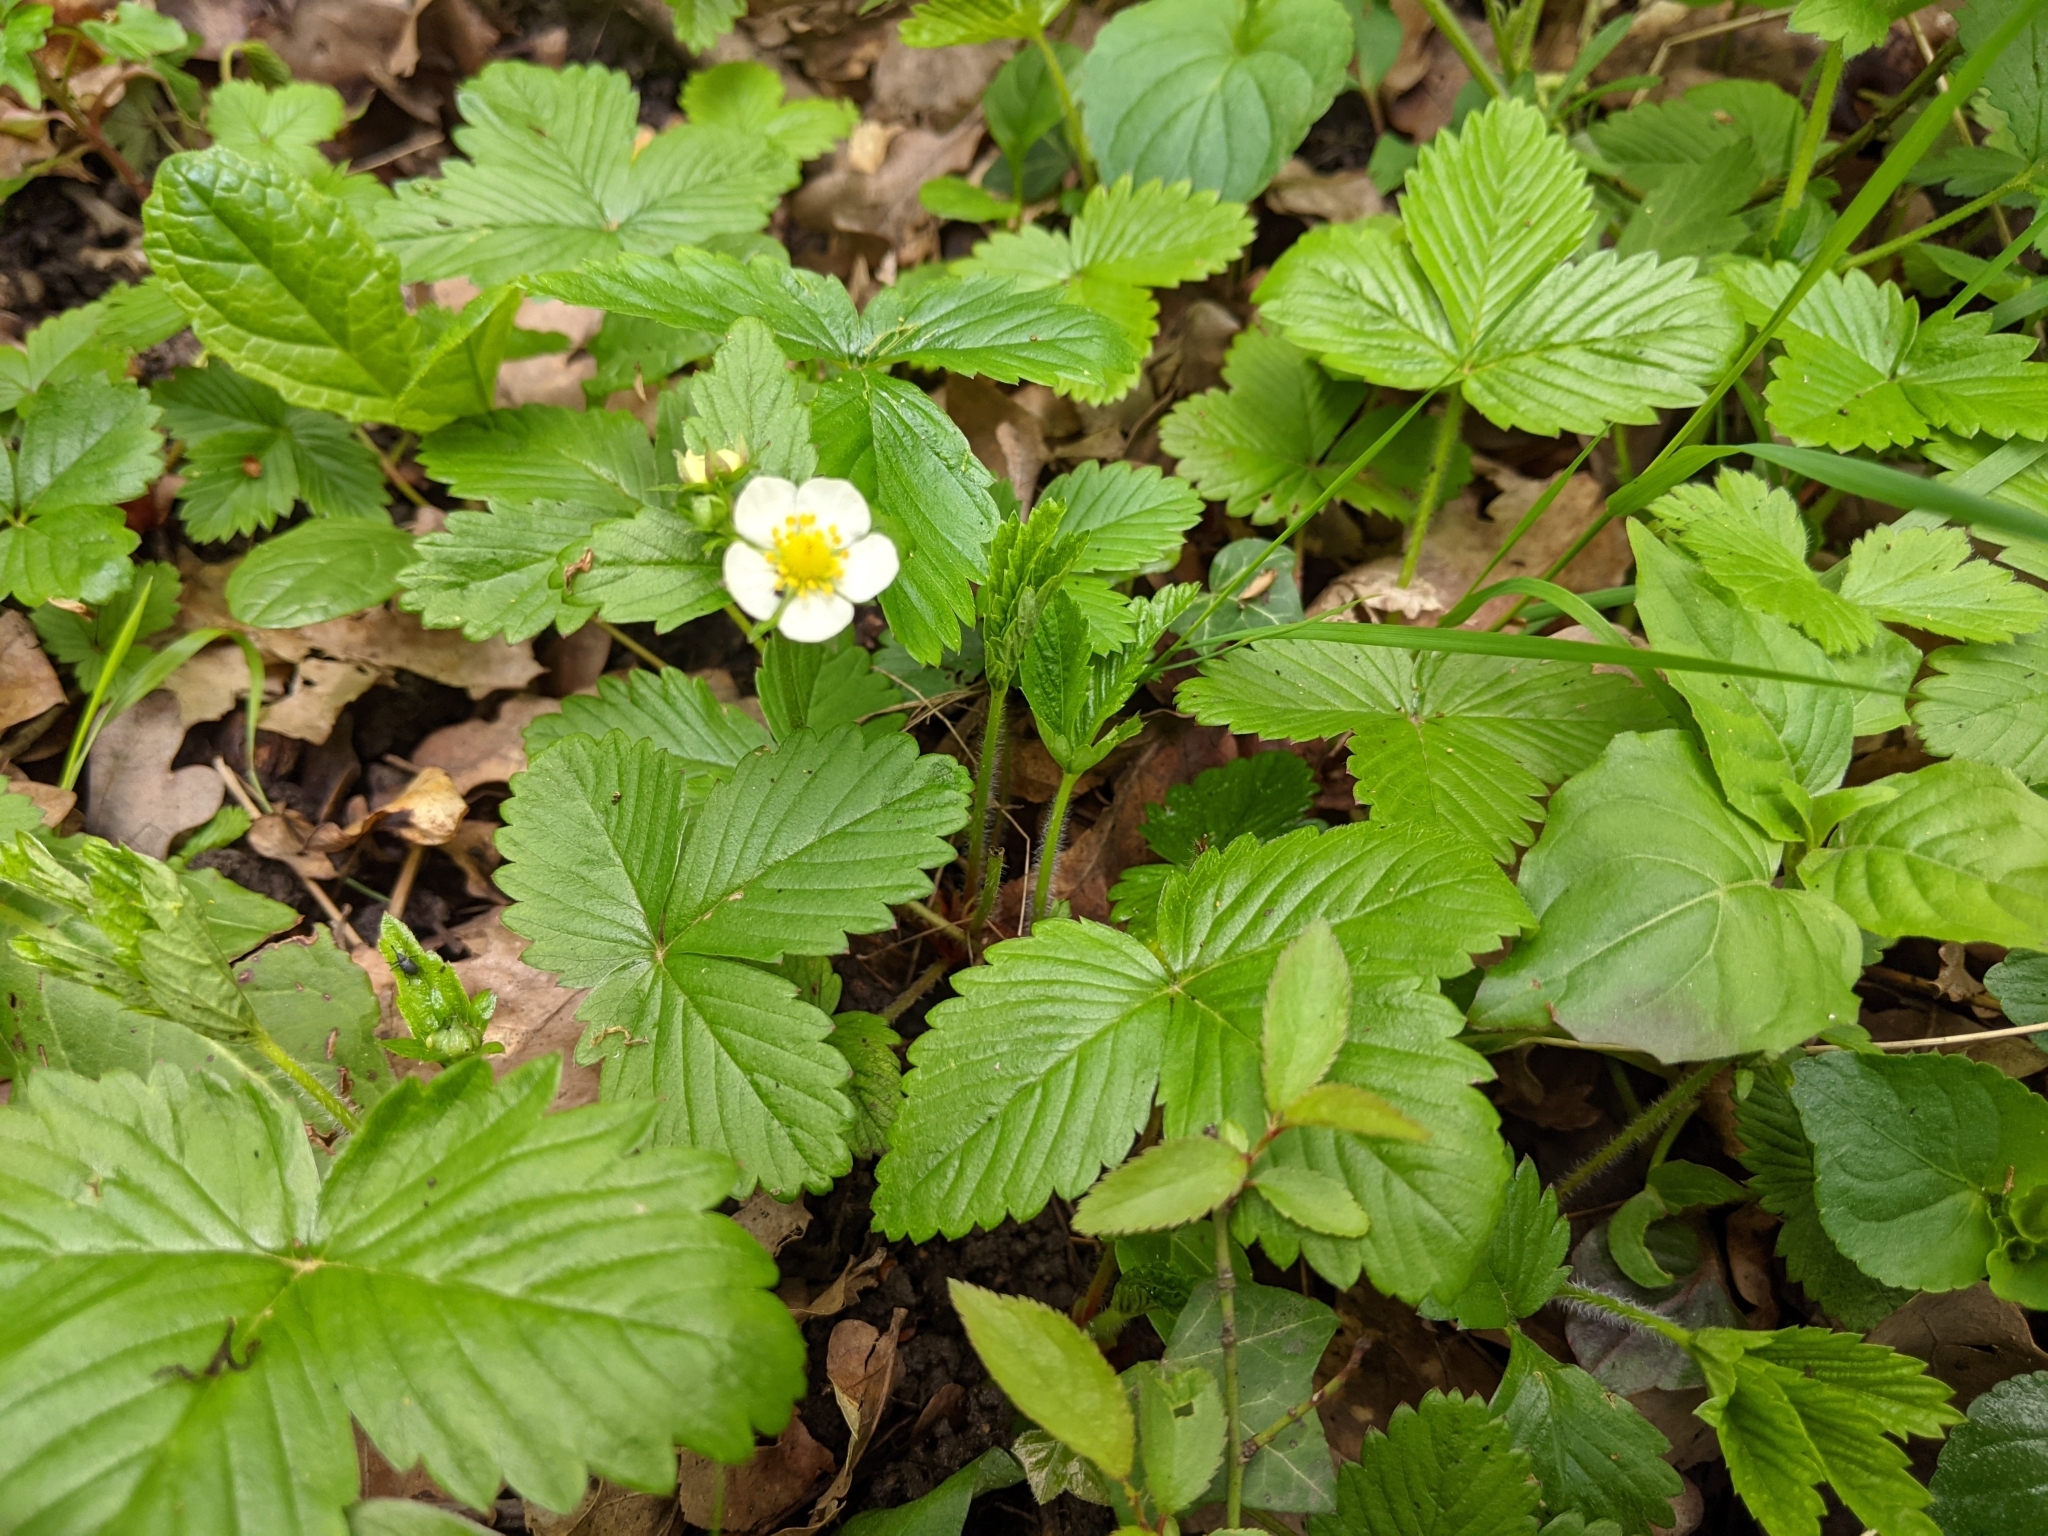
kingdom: Plantae
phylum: Tracheophyta
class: Magnoliopsida
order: Rosales
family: Rosaceae
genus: Fragaria
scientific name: Fragaria vesca
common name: Wild strawberry
